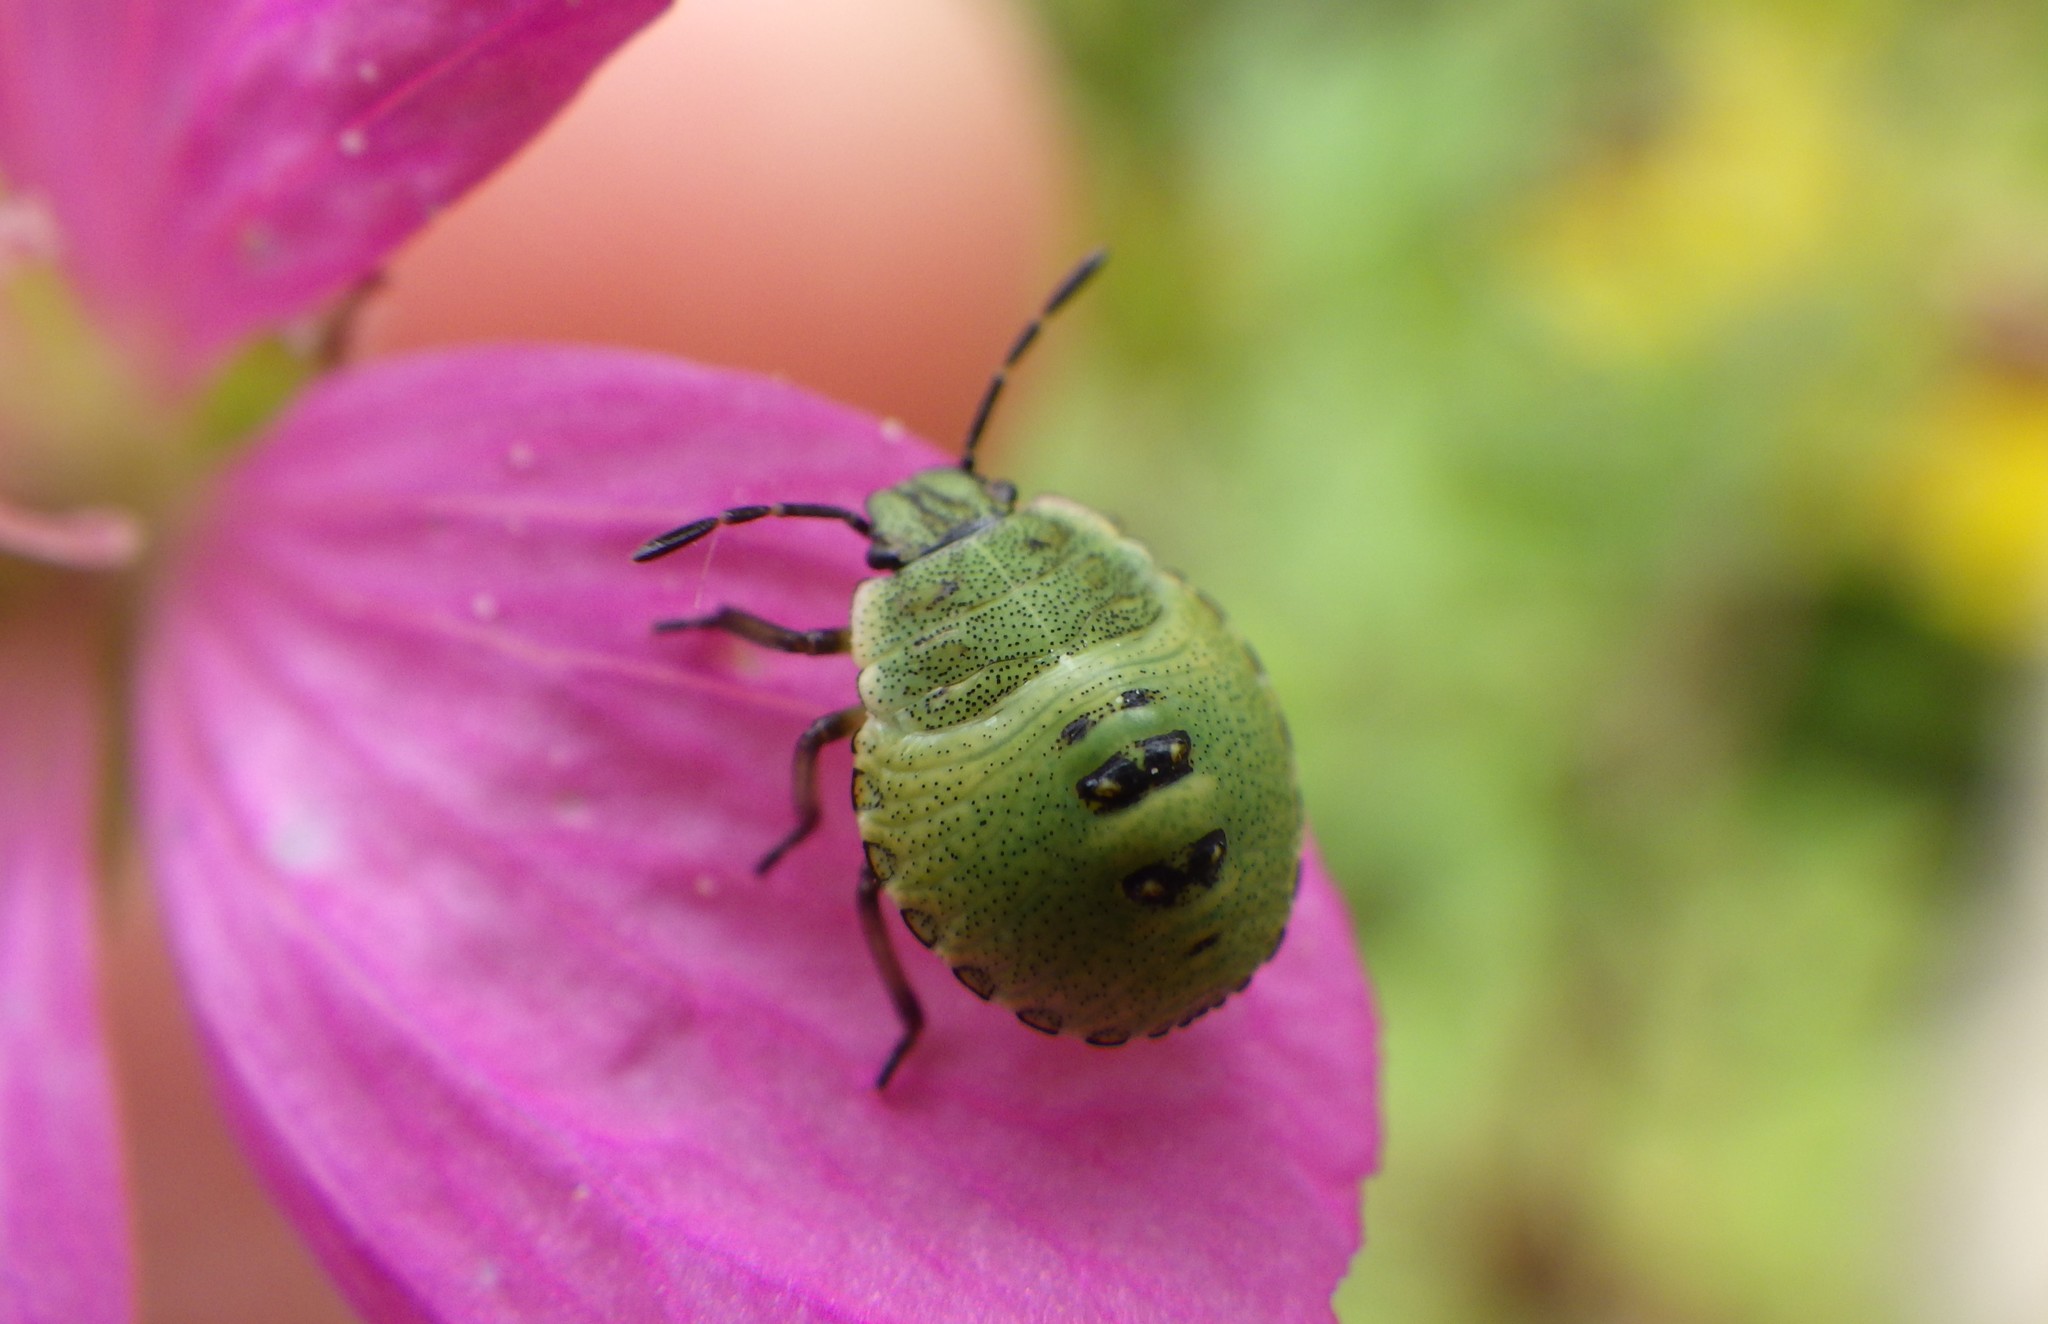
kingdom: Animalia
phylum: Arthropoda
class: Insecta
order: Hemiptera
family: Pentatomidae
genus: Palomena
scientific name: Palomena prasina
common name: Green shieldbug
